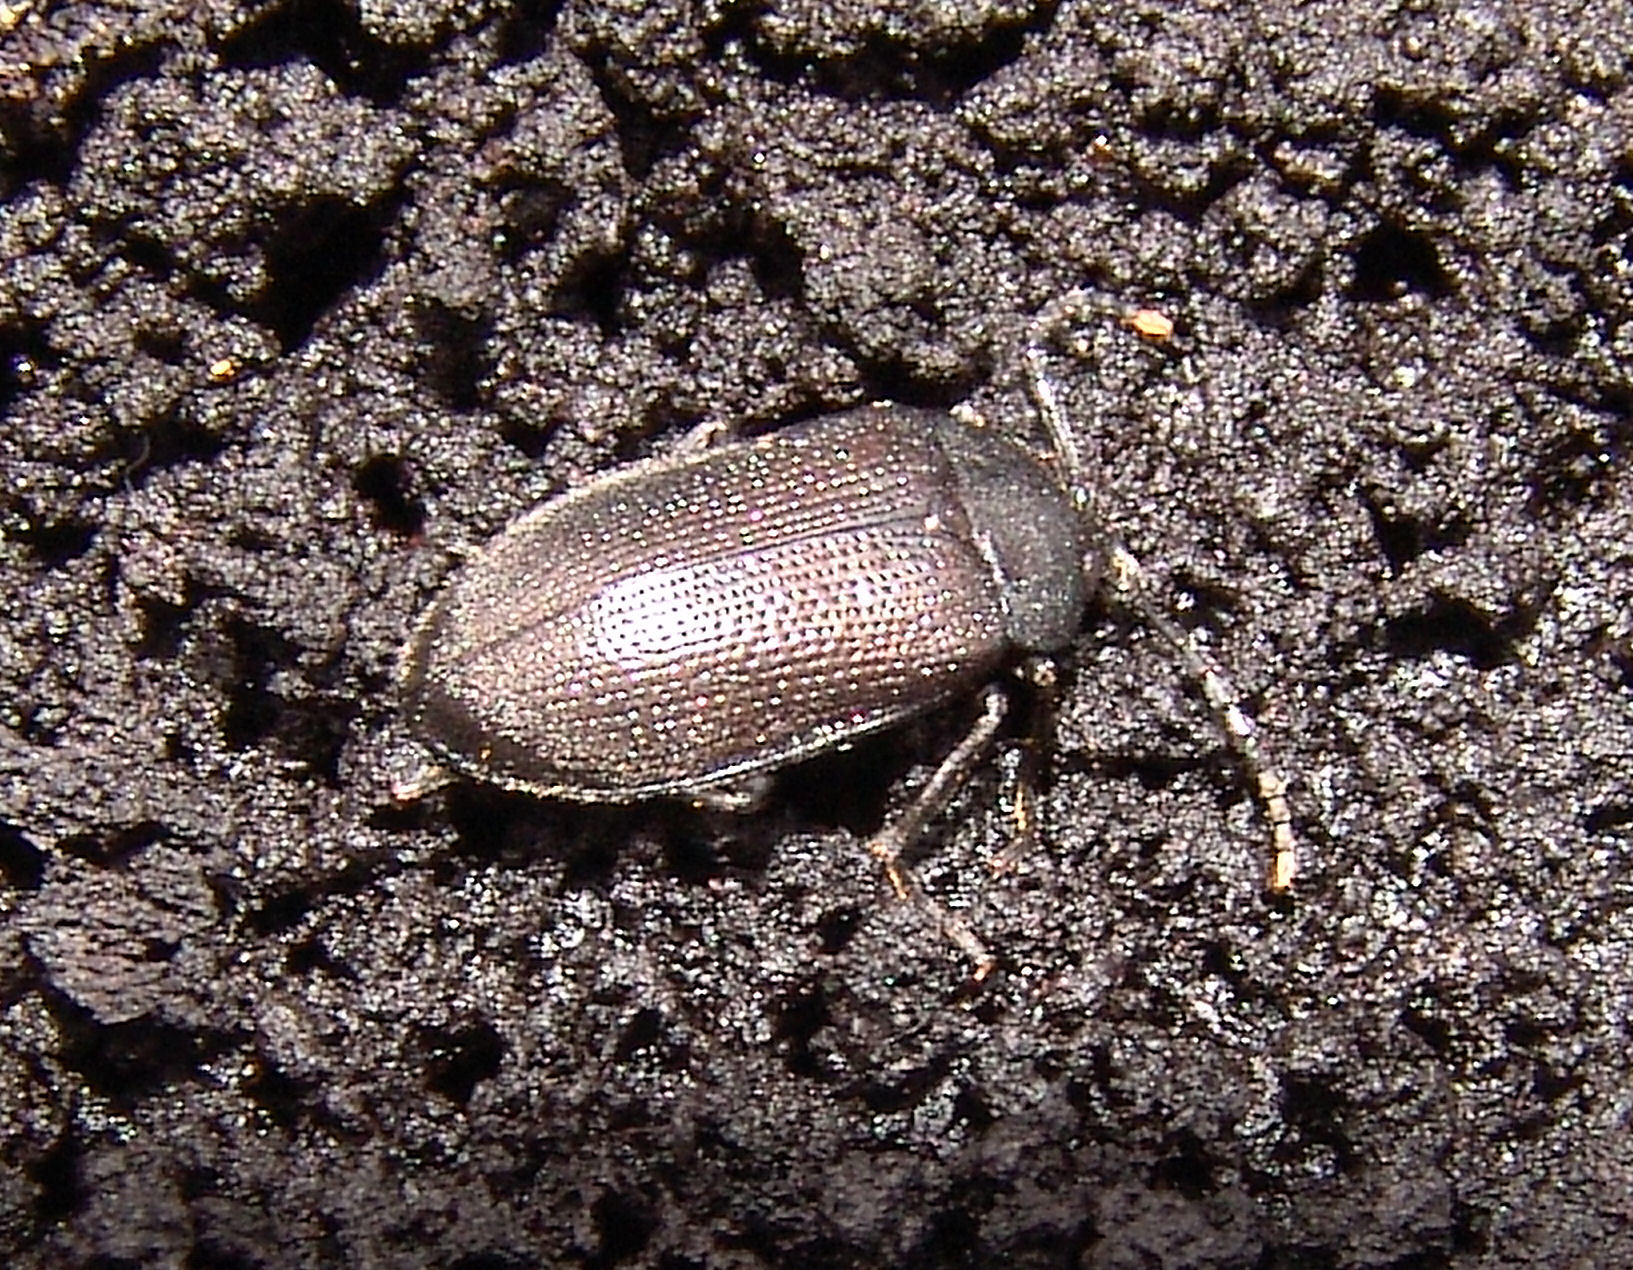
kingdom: Animalia
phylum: Arthropoda
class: Insecta
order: Coleoptera
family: Tetratomidae
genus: Penthe
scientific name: Penthe pimelia
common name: Velvety bark beetle
